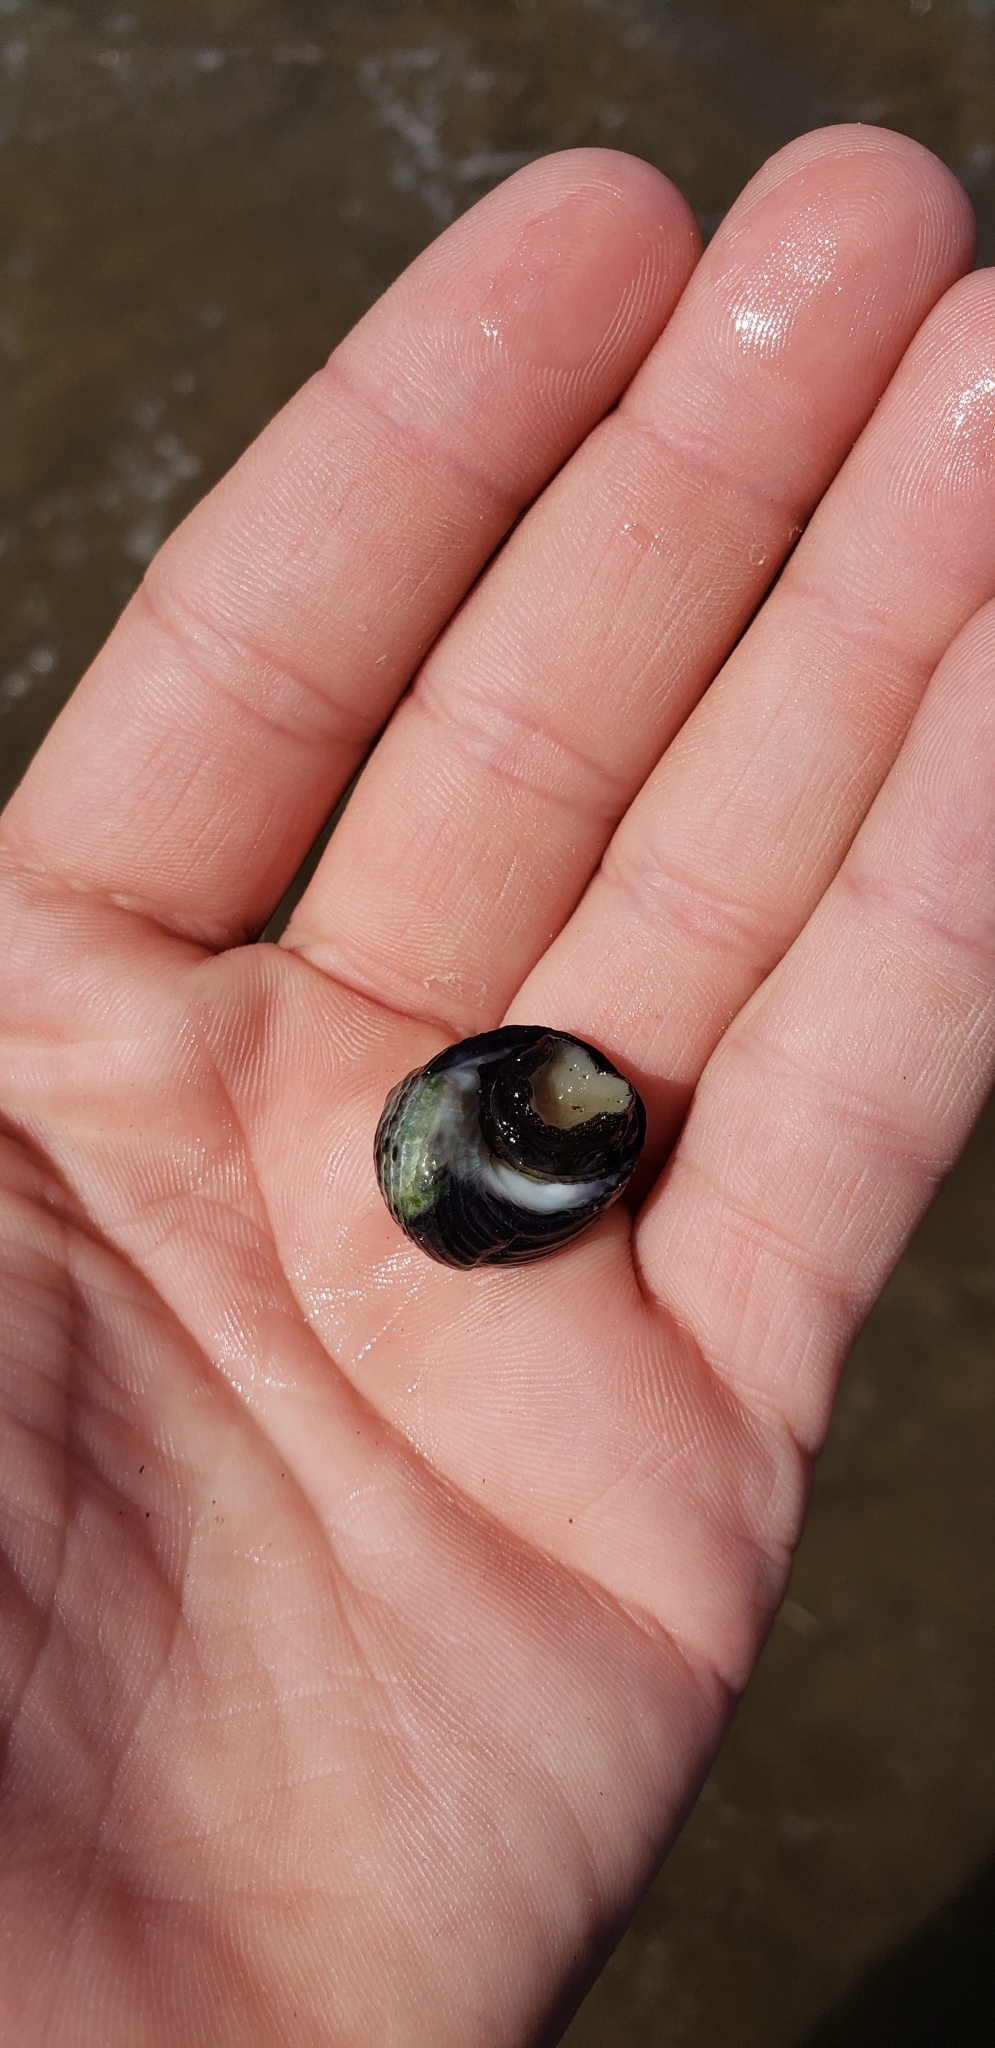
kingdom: Animalia
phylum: Mollusca
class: Gastropoda
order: Trochida
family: Turbinidae
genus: Prisogaster
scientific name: Prisogaster niger
